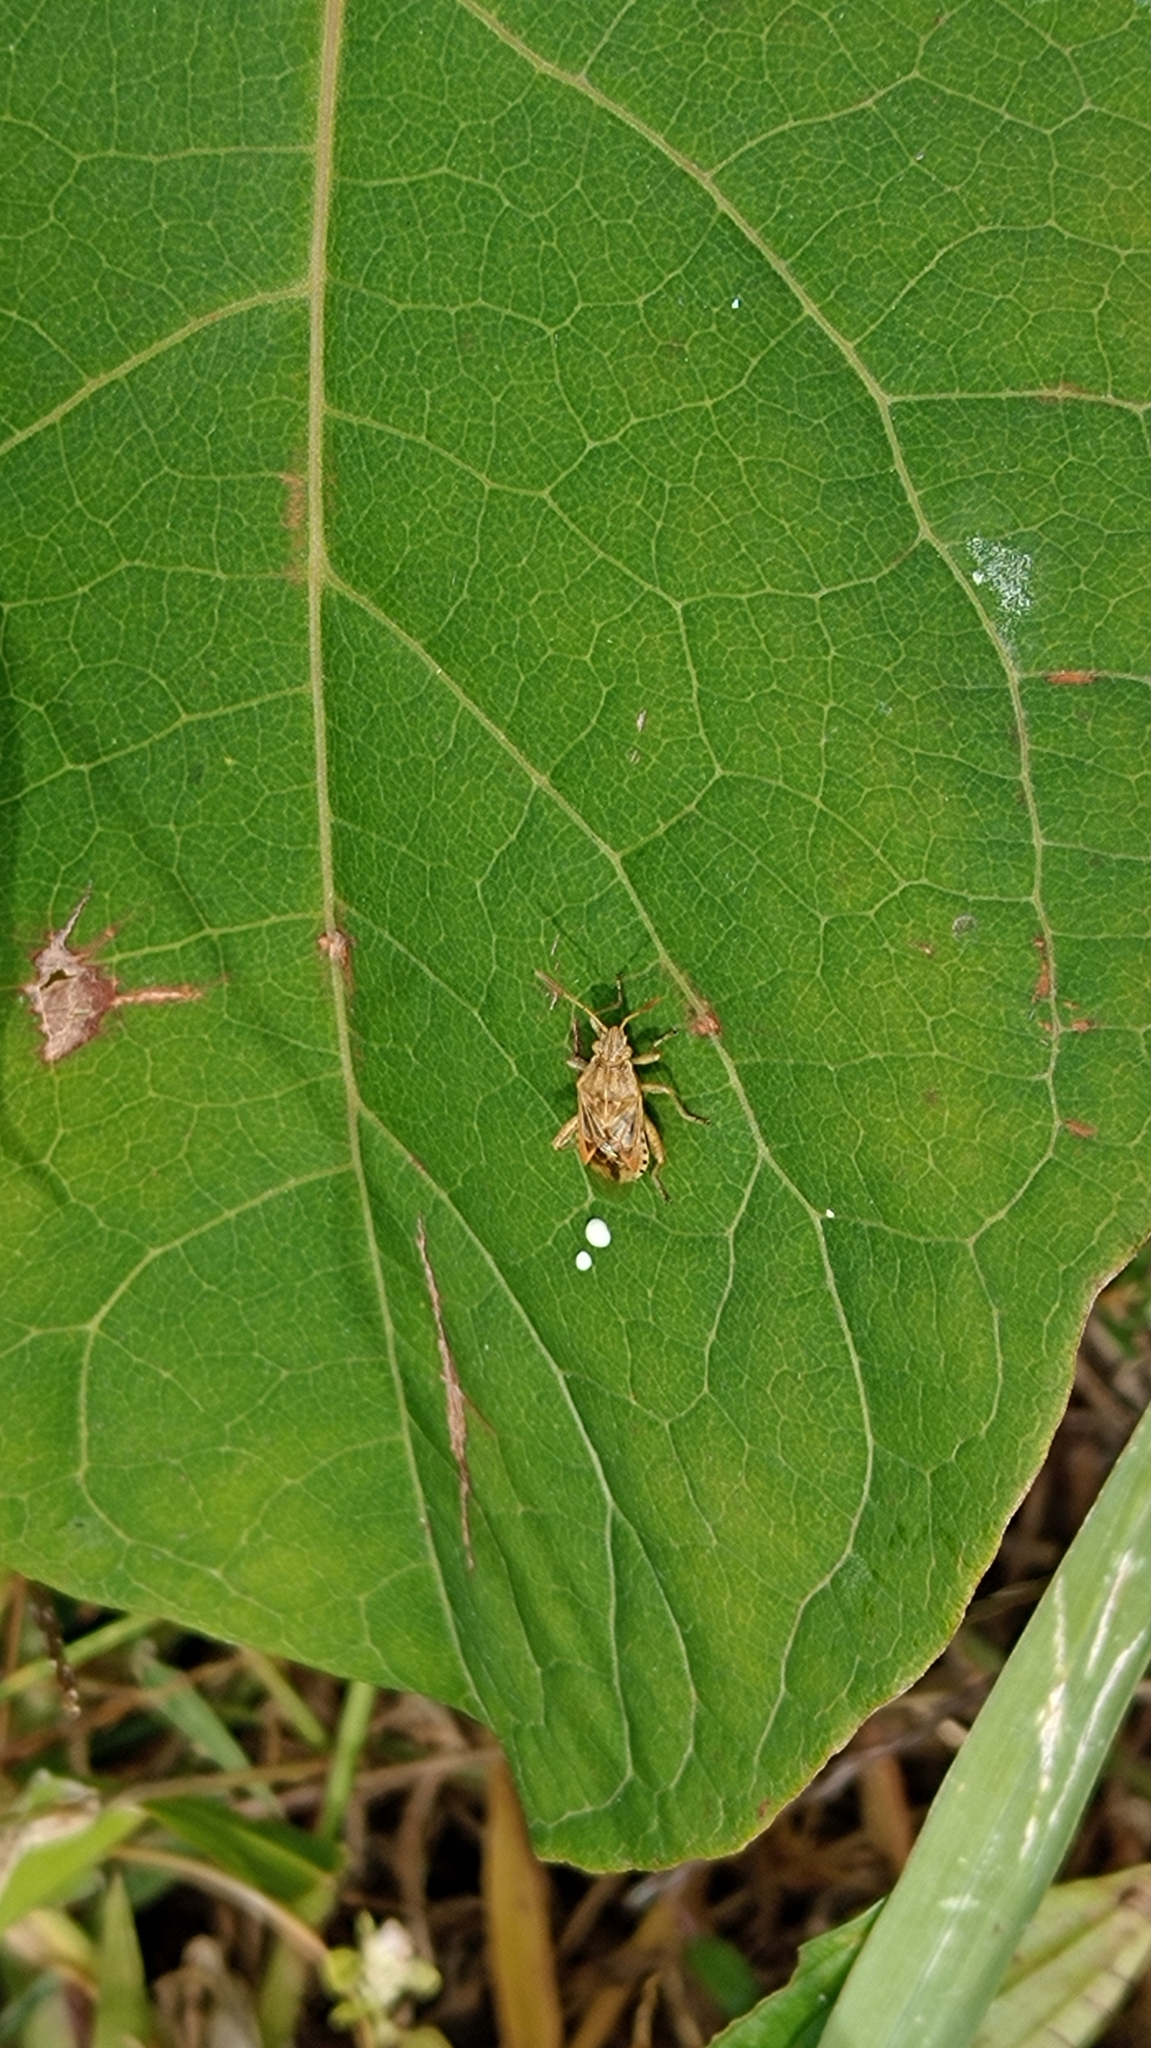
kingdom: Animalia
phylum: Arthropoda
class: Insecta
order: Hemiptera
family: Rhopalidae
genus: Stictopleurus
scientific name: Stictopleurus abutilon
